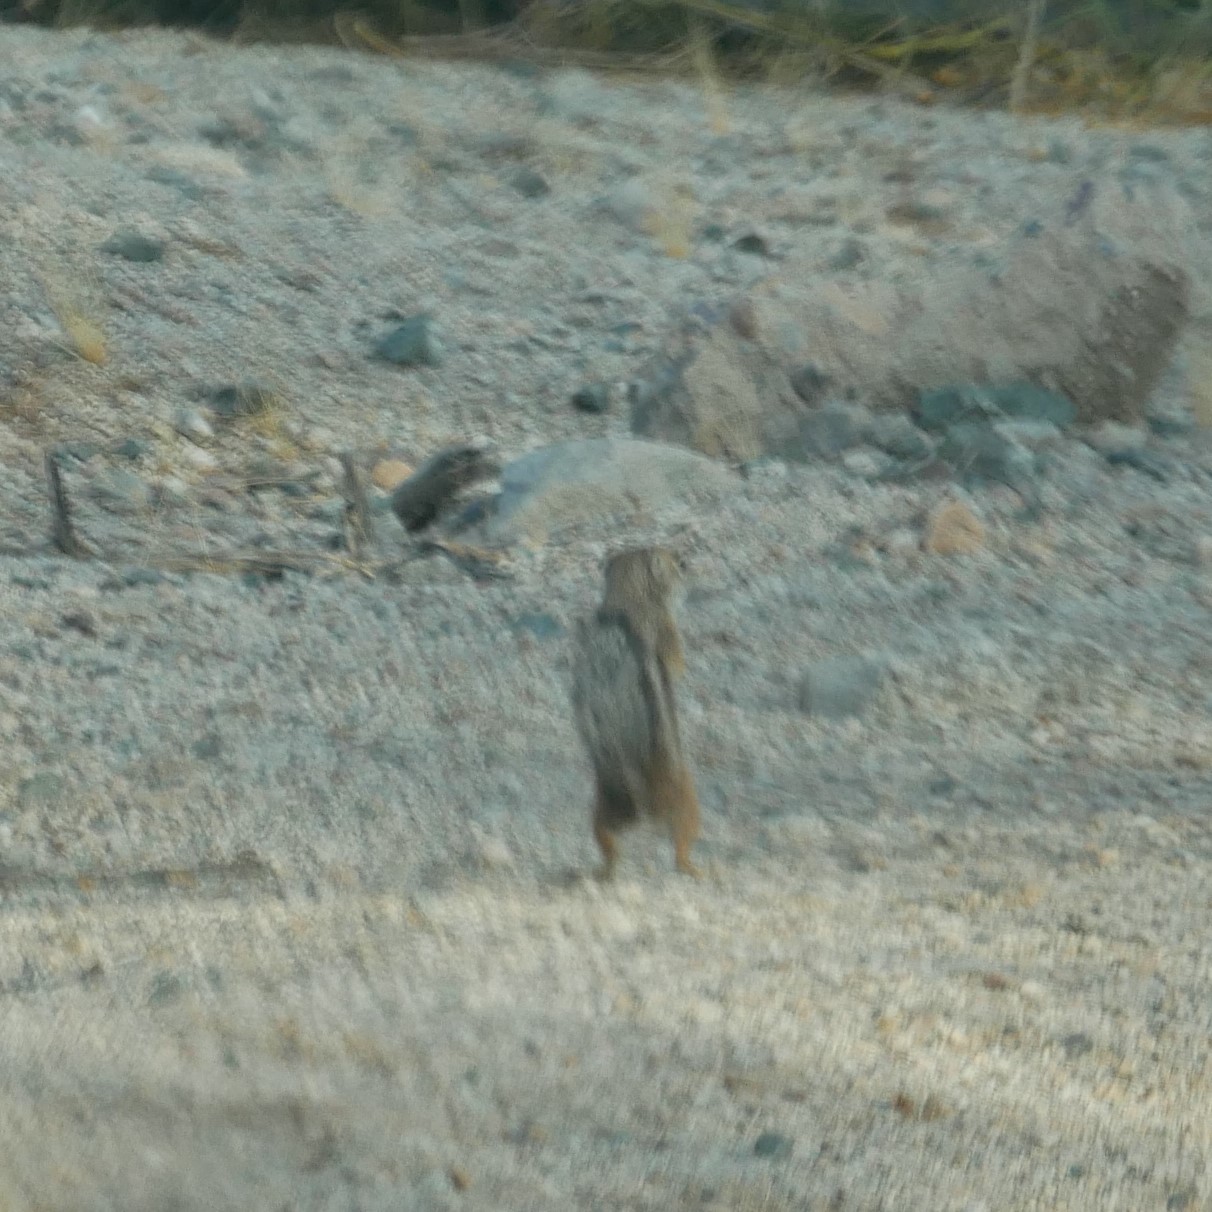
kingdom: Animalia
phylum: Chordata
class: Mammalia
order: Rodentia
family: Sciuridae
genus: Ammospermophilus
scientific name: Ammospermophilus harrisii
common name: Harris's antelope squirrel
